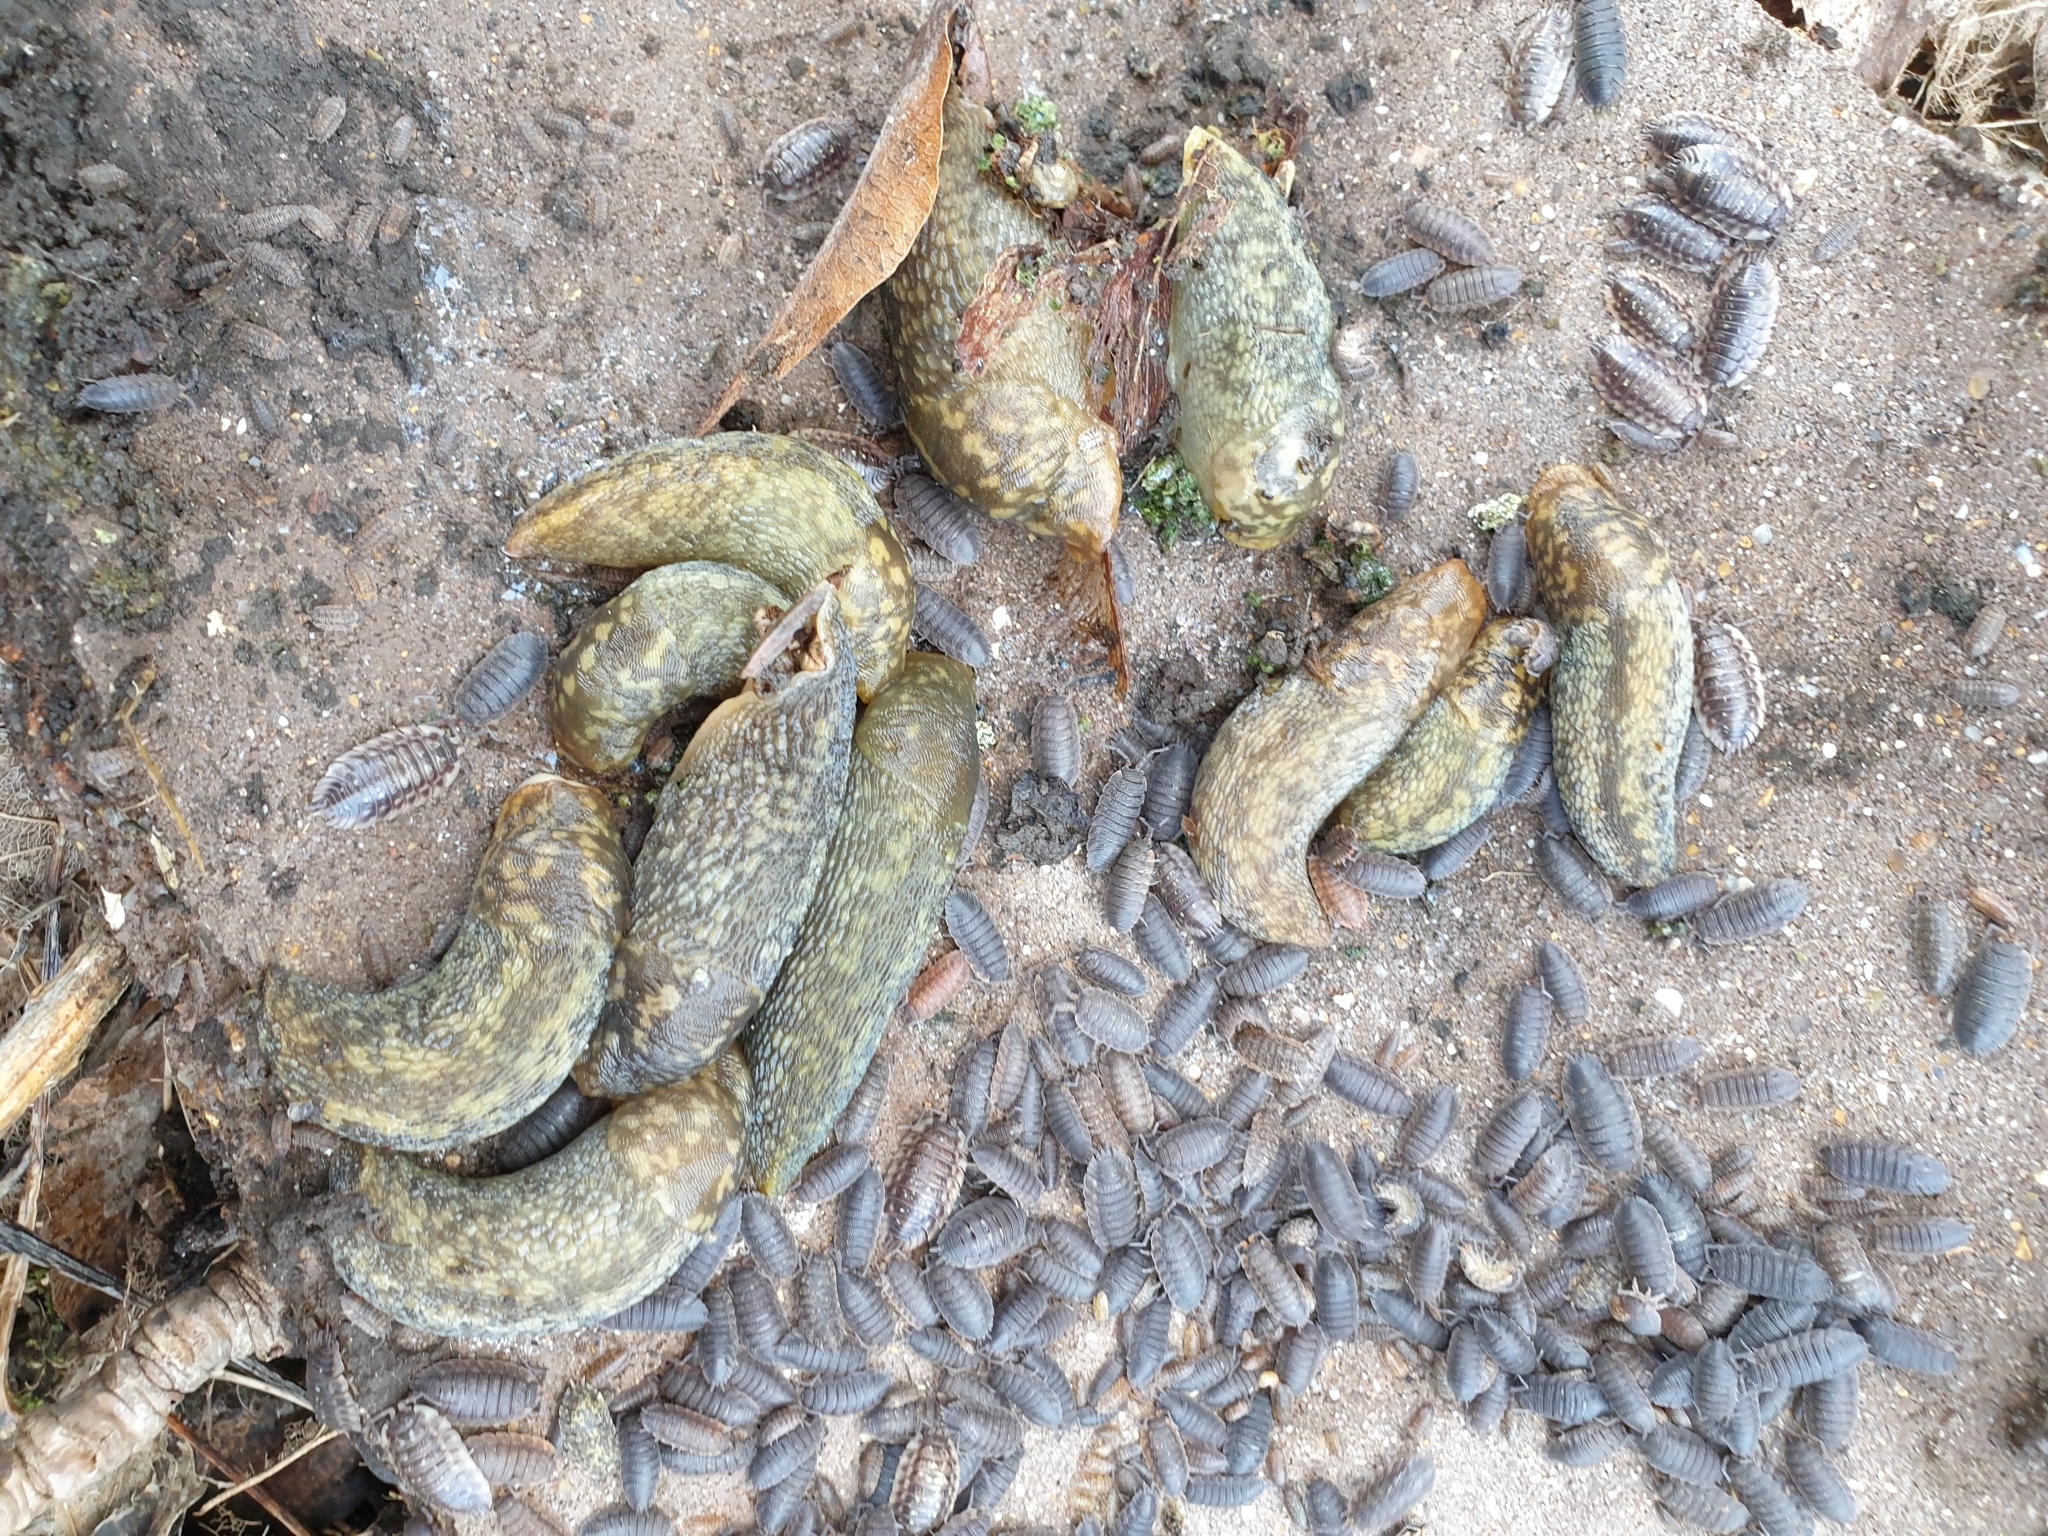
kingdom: Animalia
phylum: Mollusca
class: Gastropoda
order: Stylommatophora
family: Limacidae
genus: Limacus
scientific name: Limacus maculatus
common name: Irish yellow slug
